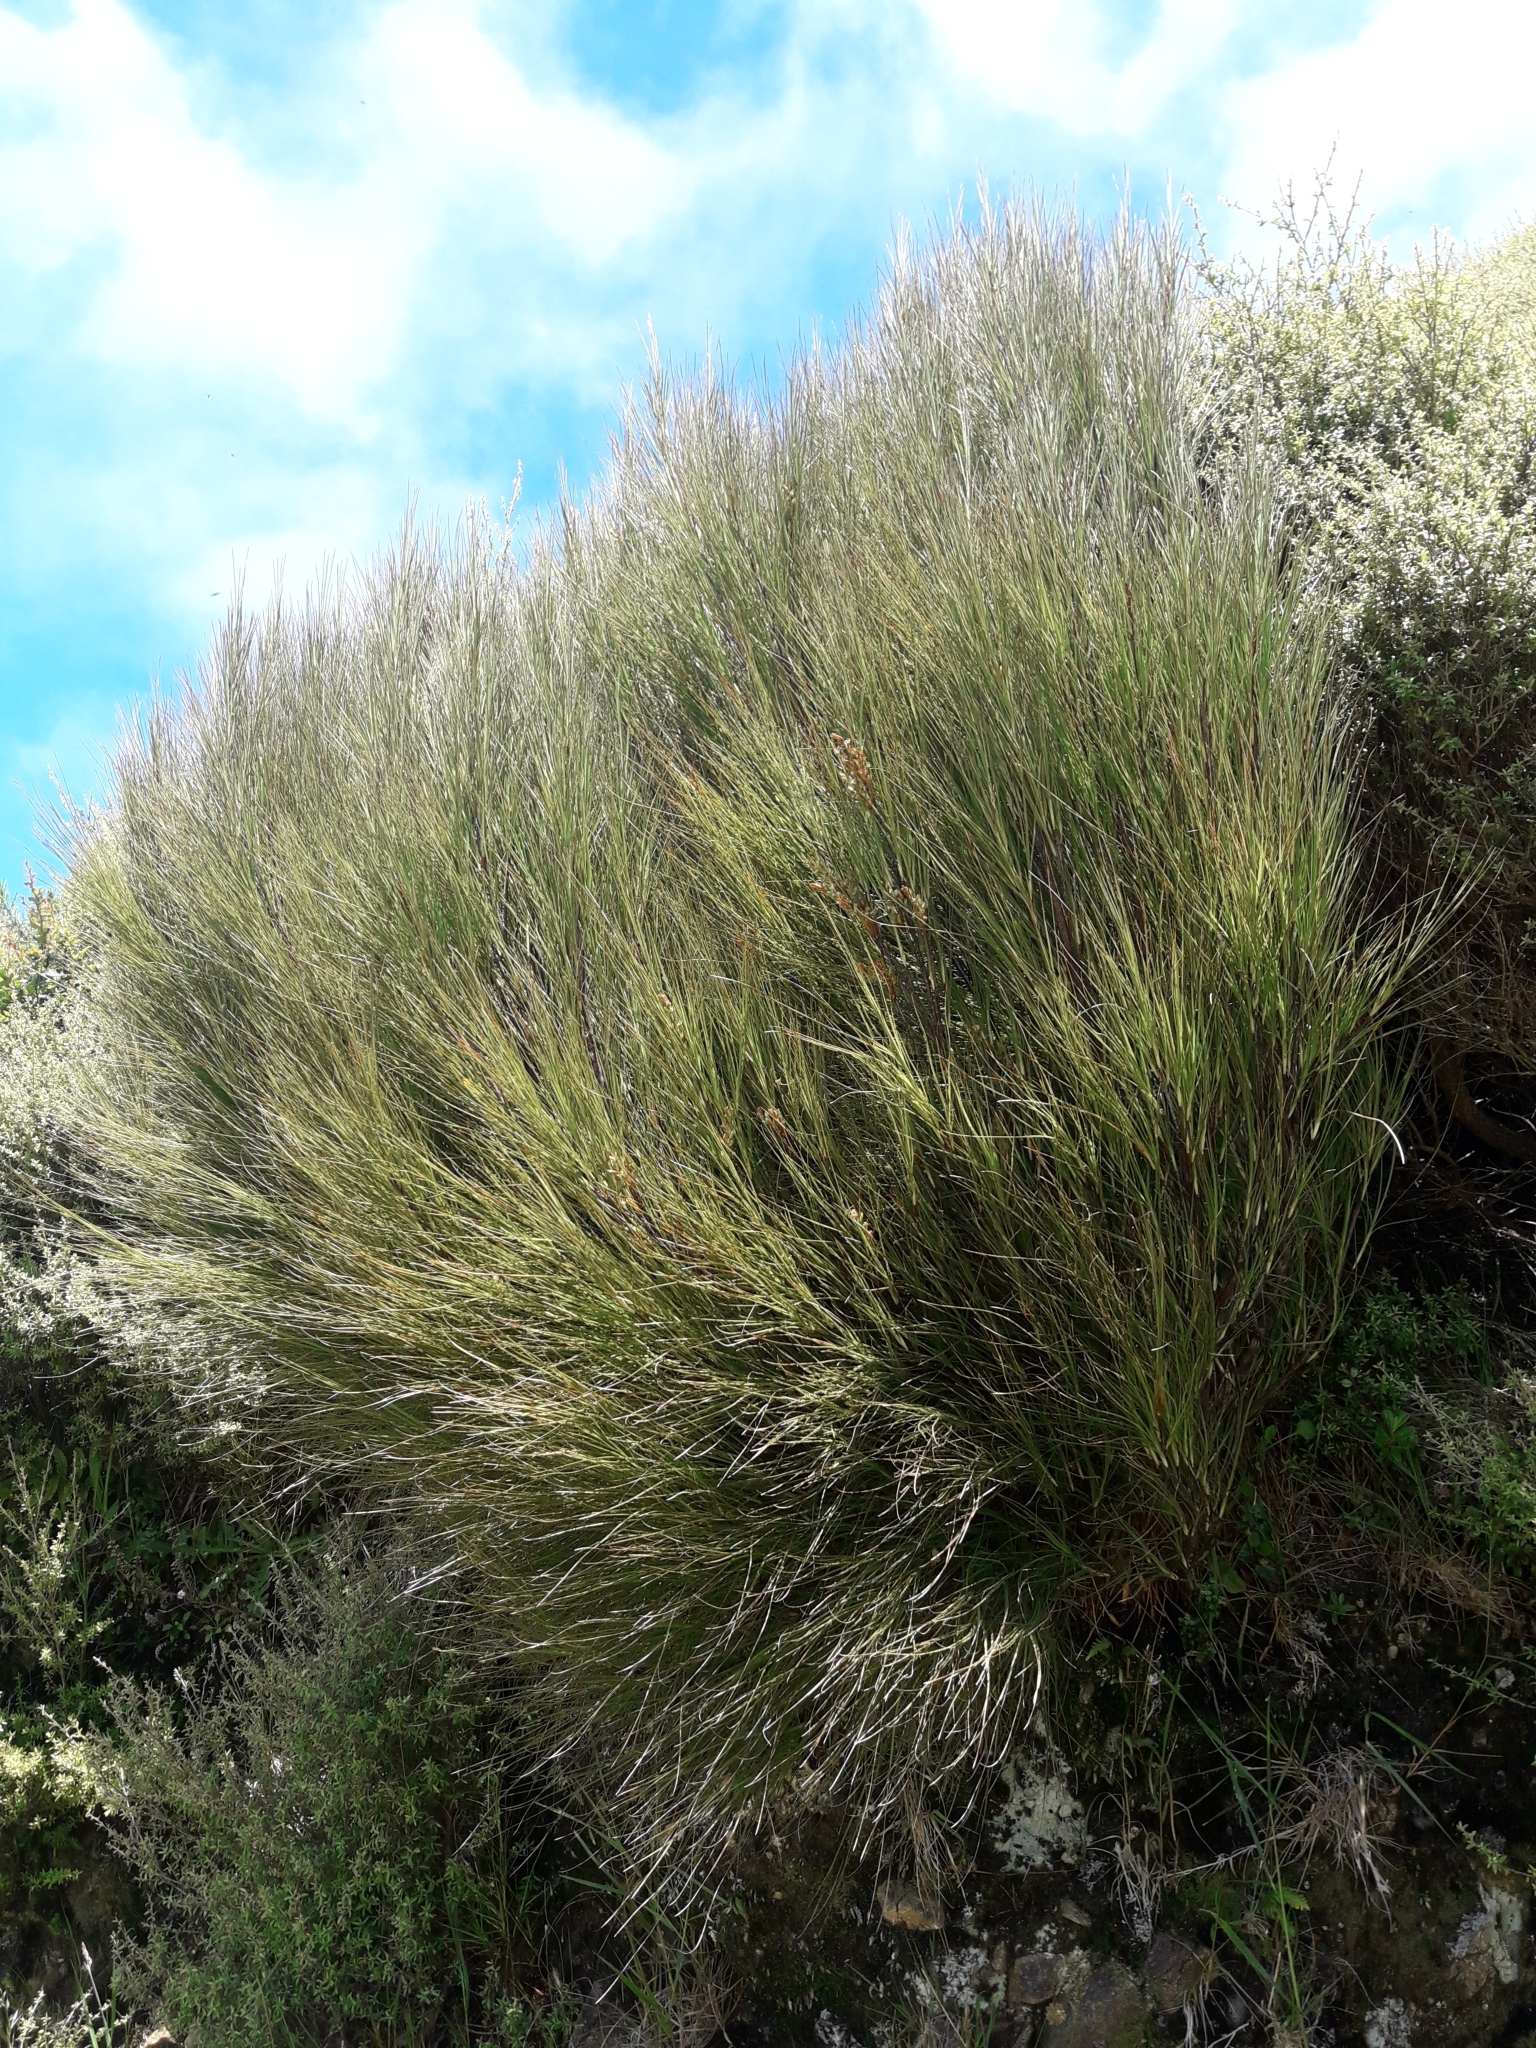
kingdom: Plantae
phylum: Tracheophyta
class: Magnoliopsida
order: Ericales
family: Ericaceae
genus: Dracophyllum
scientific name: Dracophyllum filifolium
